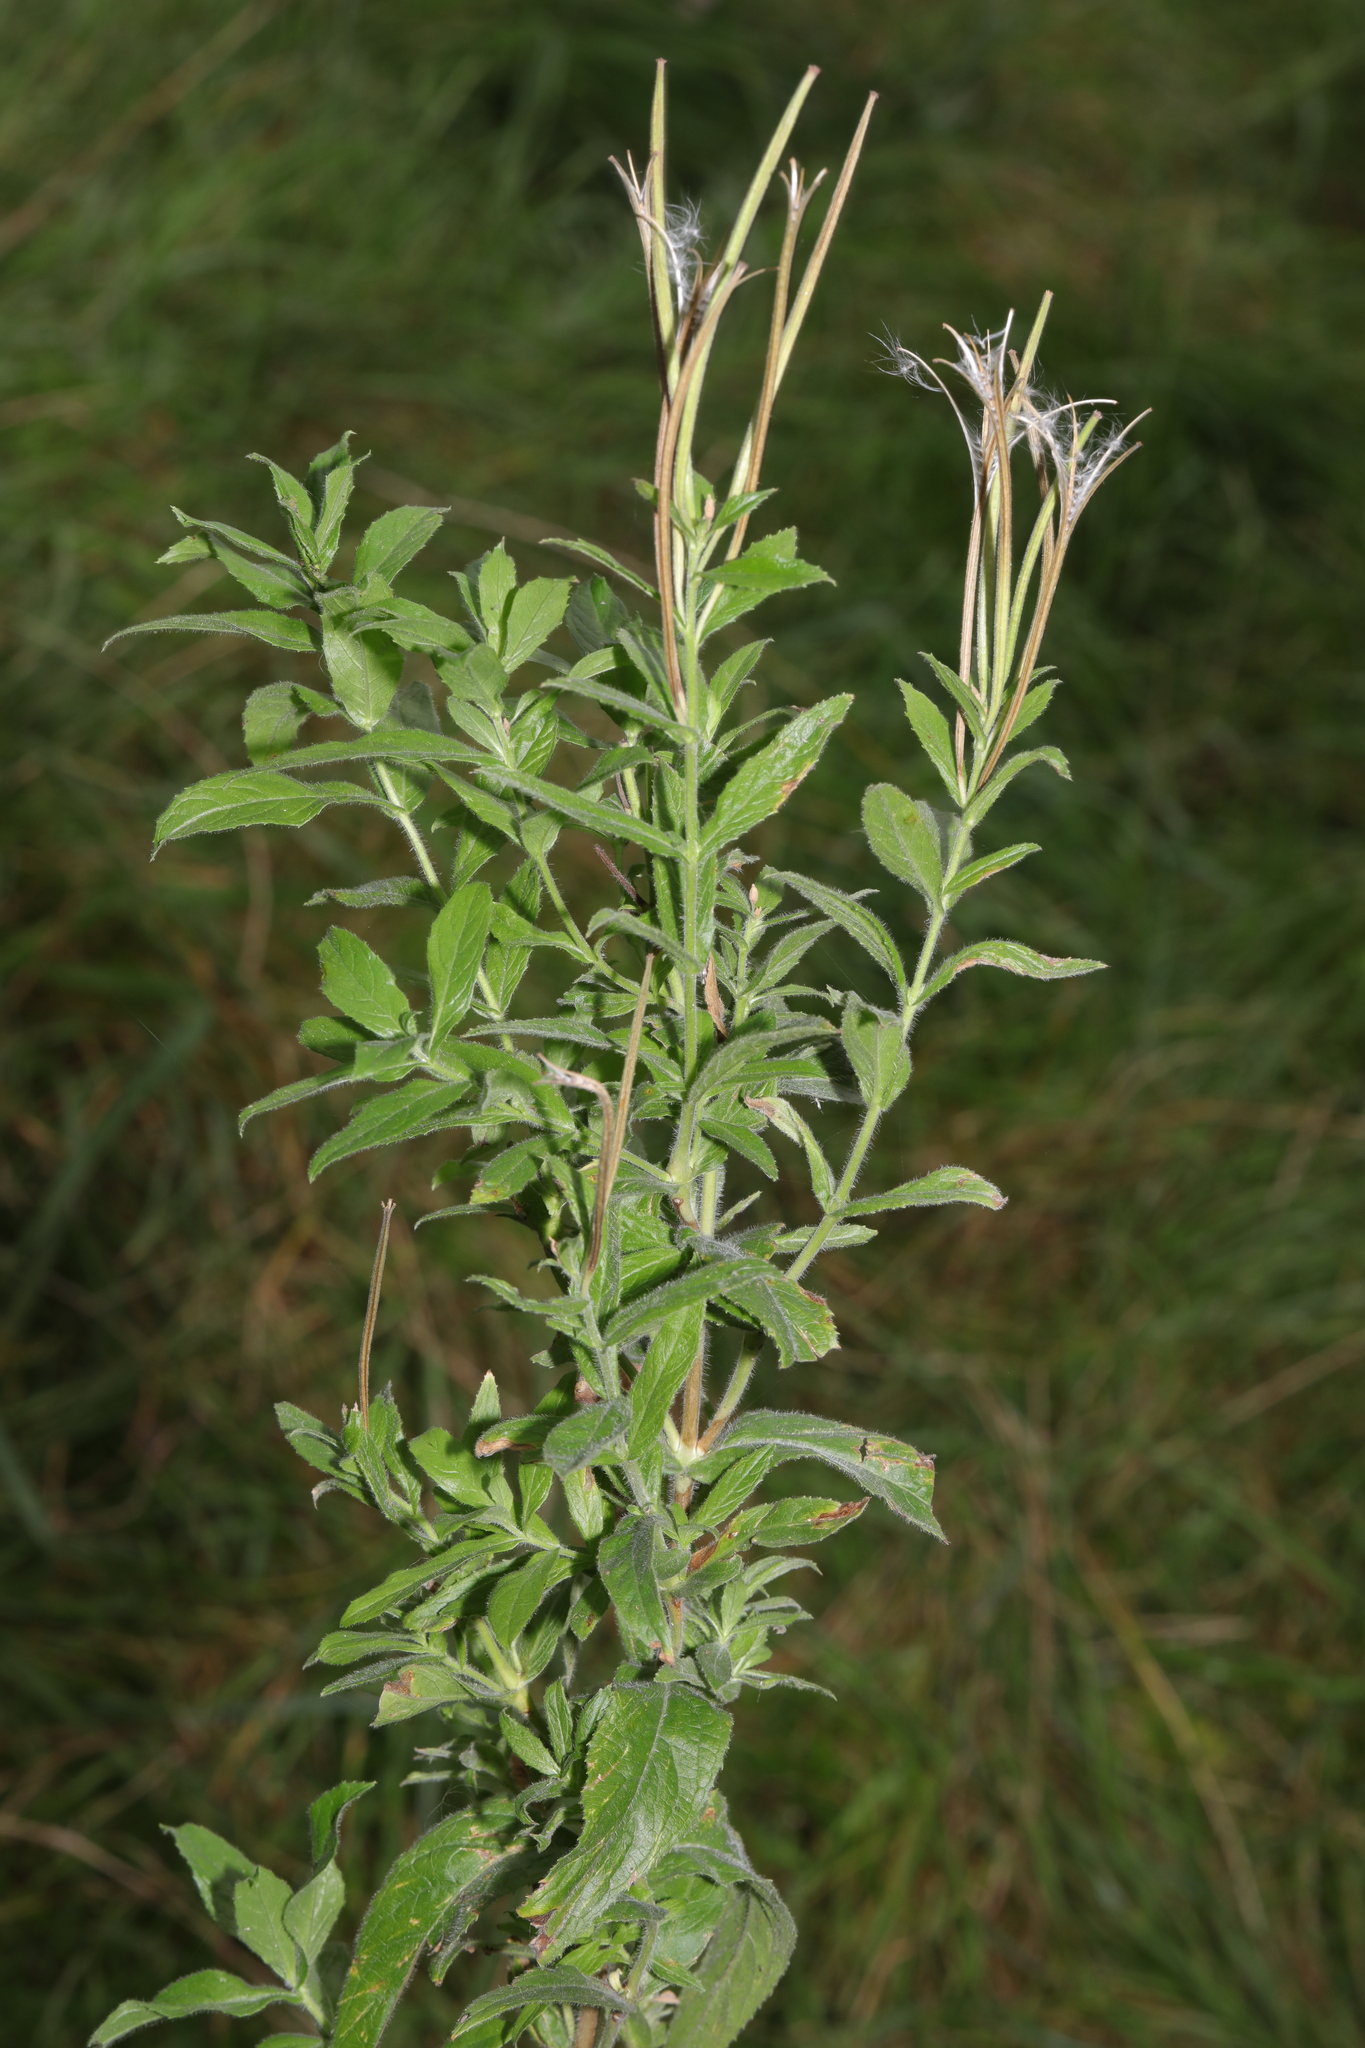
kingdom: Plantae
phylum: Tracheophyta
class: Magnoliopsida
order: Myrtales
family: Onagraceae
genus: Epilobium
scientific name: Epilobium hirsutum
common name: Great willowherb
